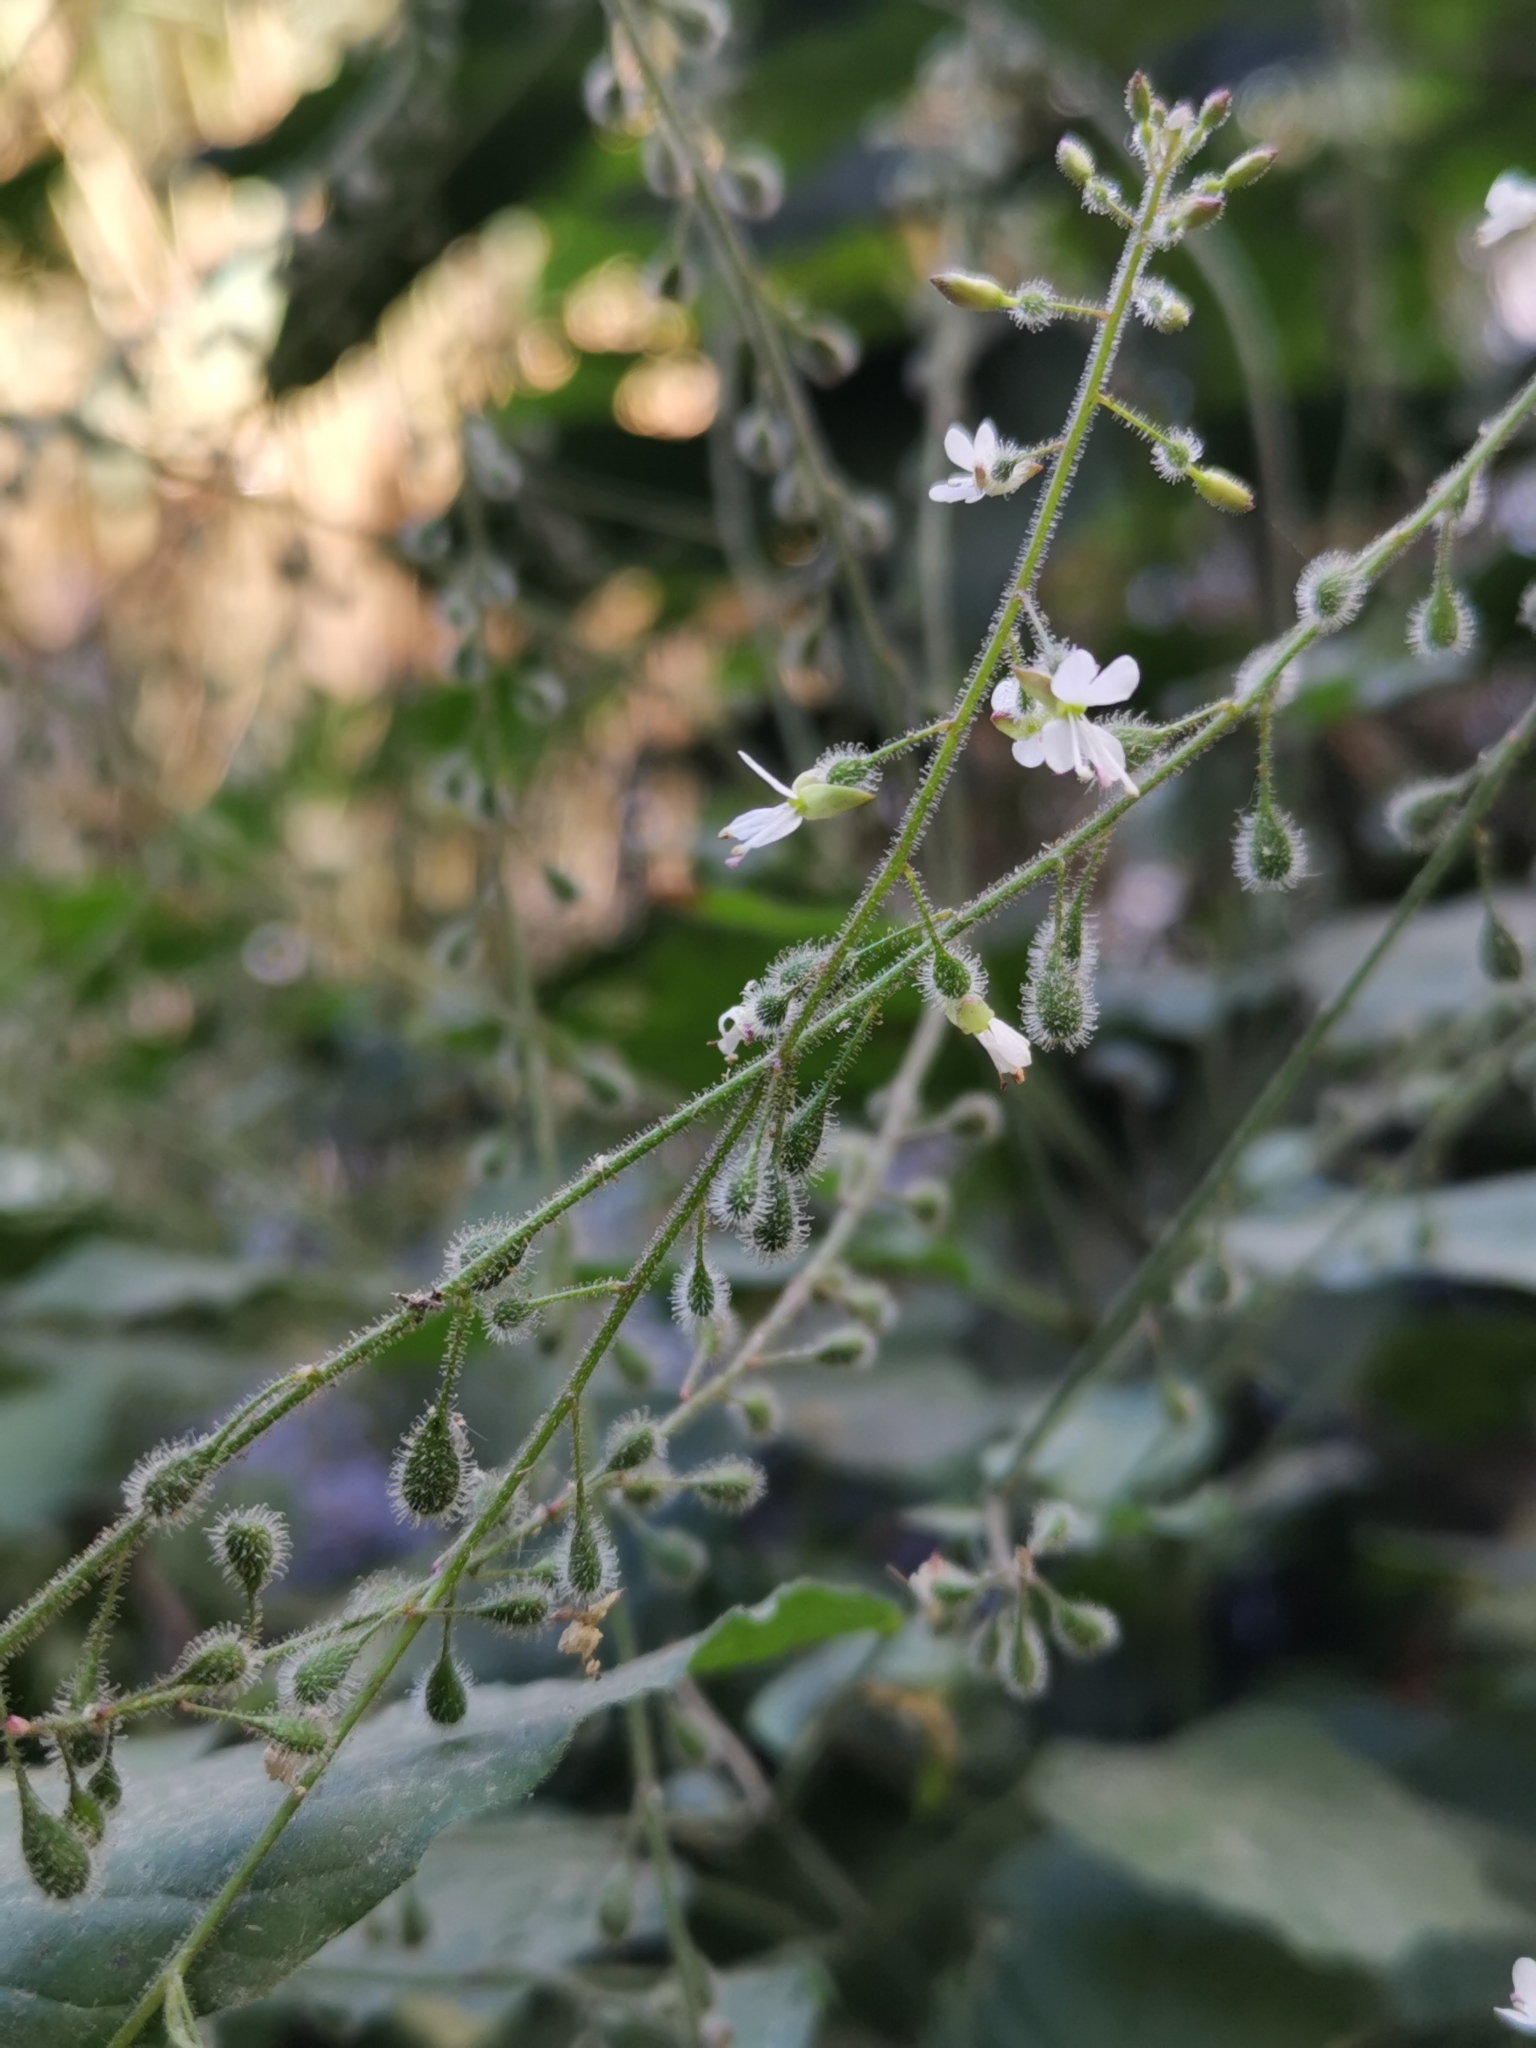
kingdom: Plantae
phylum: Tracheophyta
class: Magnoliopsida
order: Myrtales
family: Onagraceae
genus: Circaea
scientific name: Circaea lutetiana
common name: Enchanter's-nightshade
